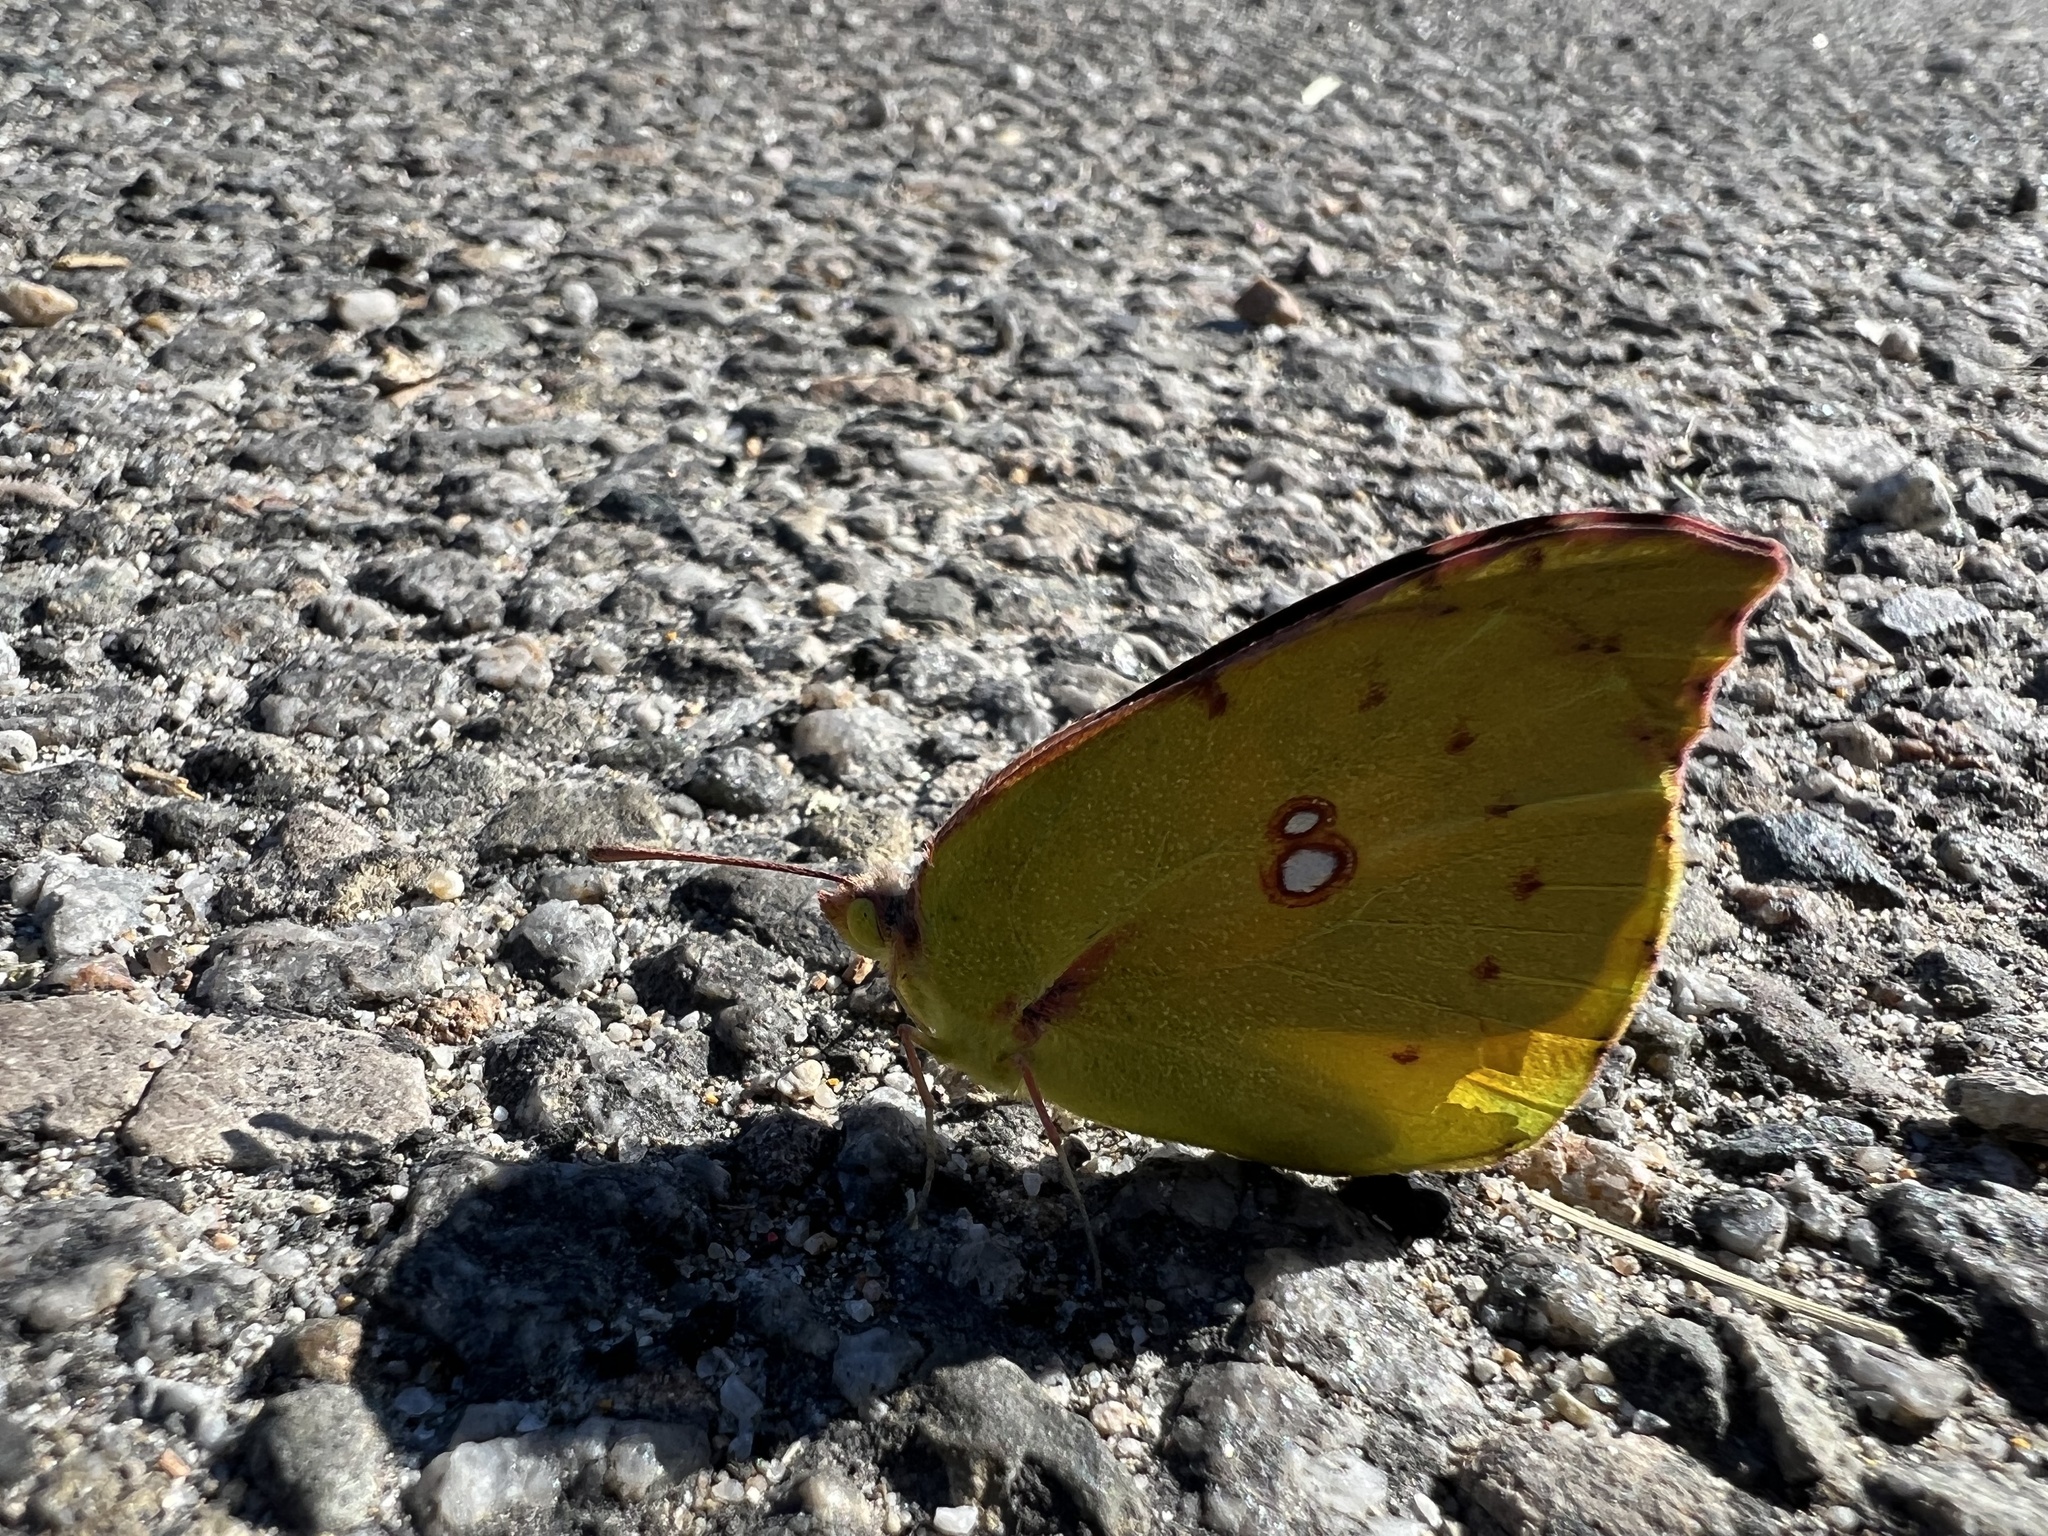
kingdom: Animalia
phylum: Arthropoda
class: Insecta
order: Lepidoptera
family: Pieridae
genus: Zerene
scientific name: Zerene eurydice
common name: California dogface
